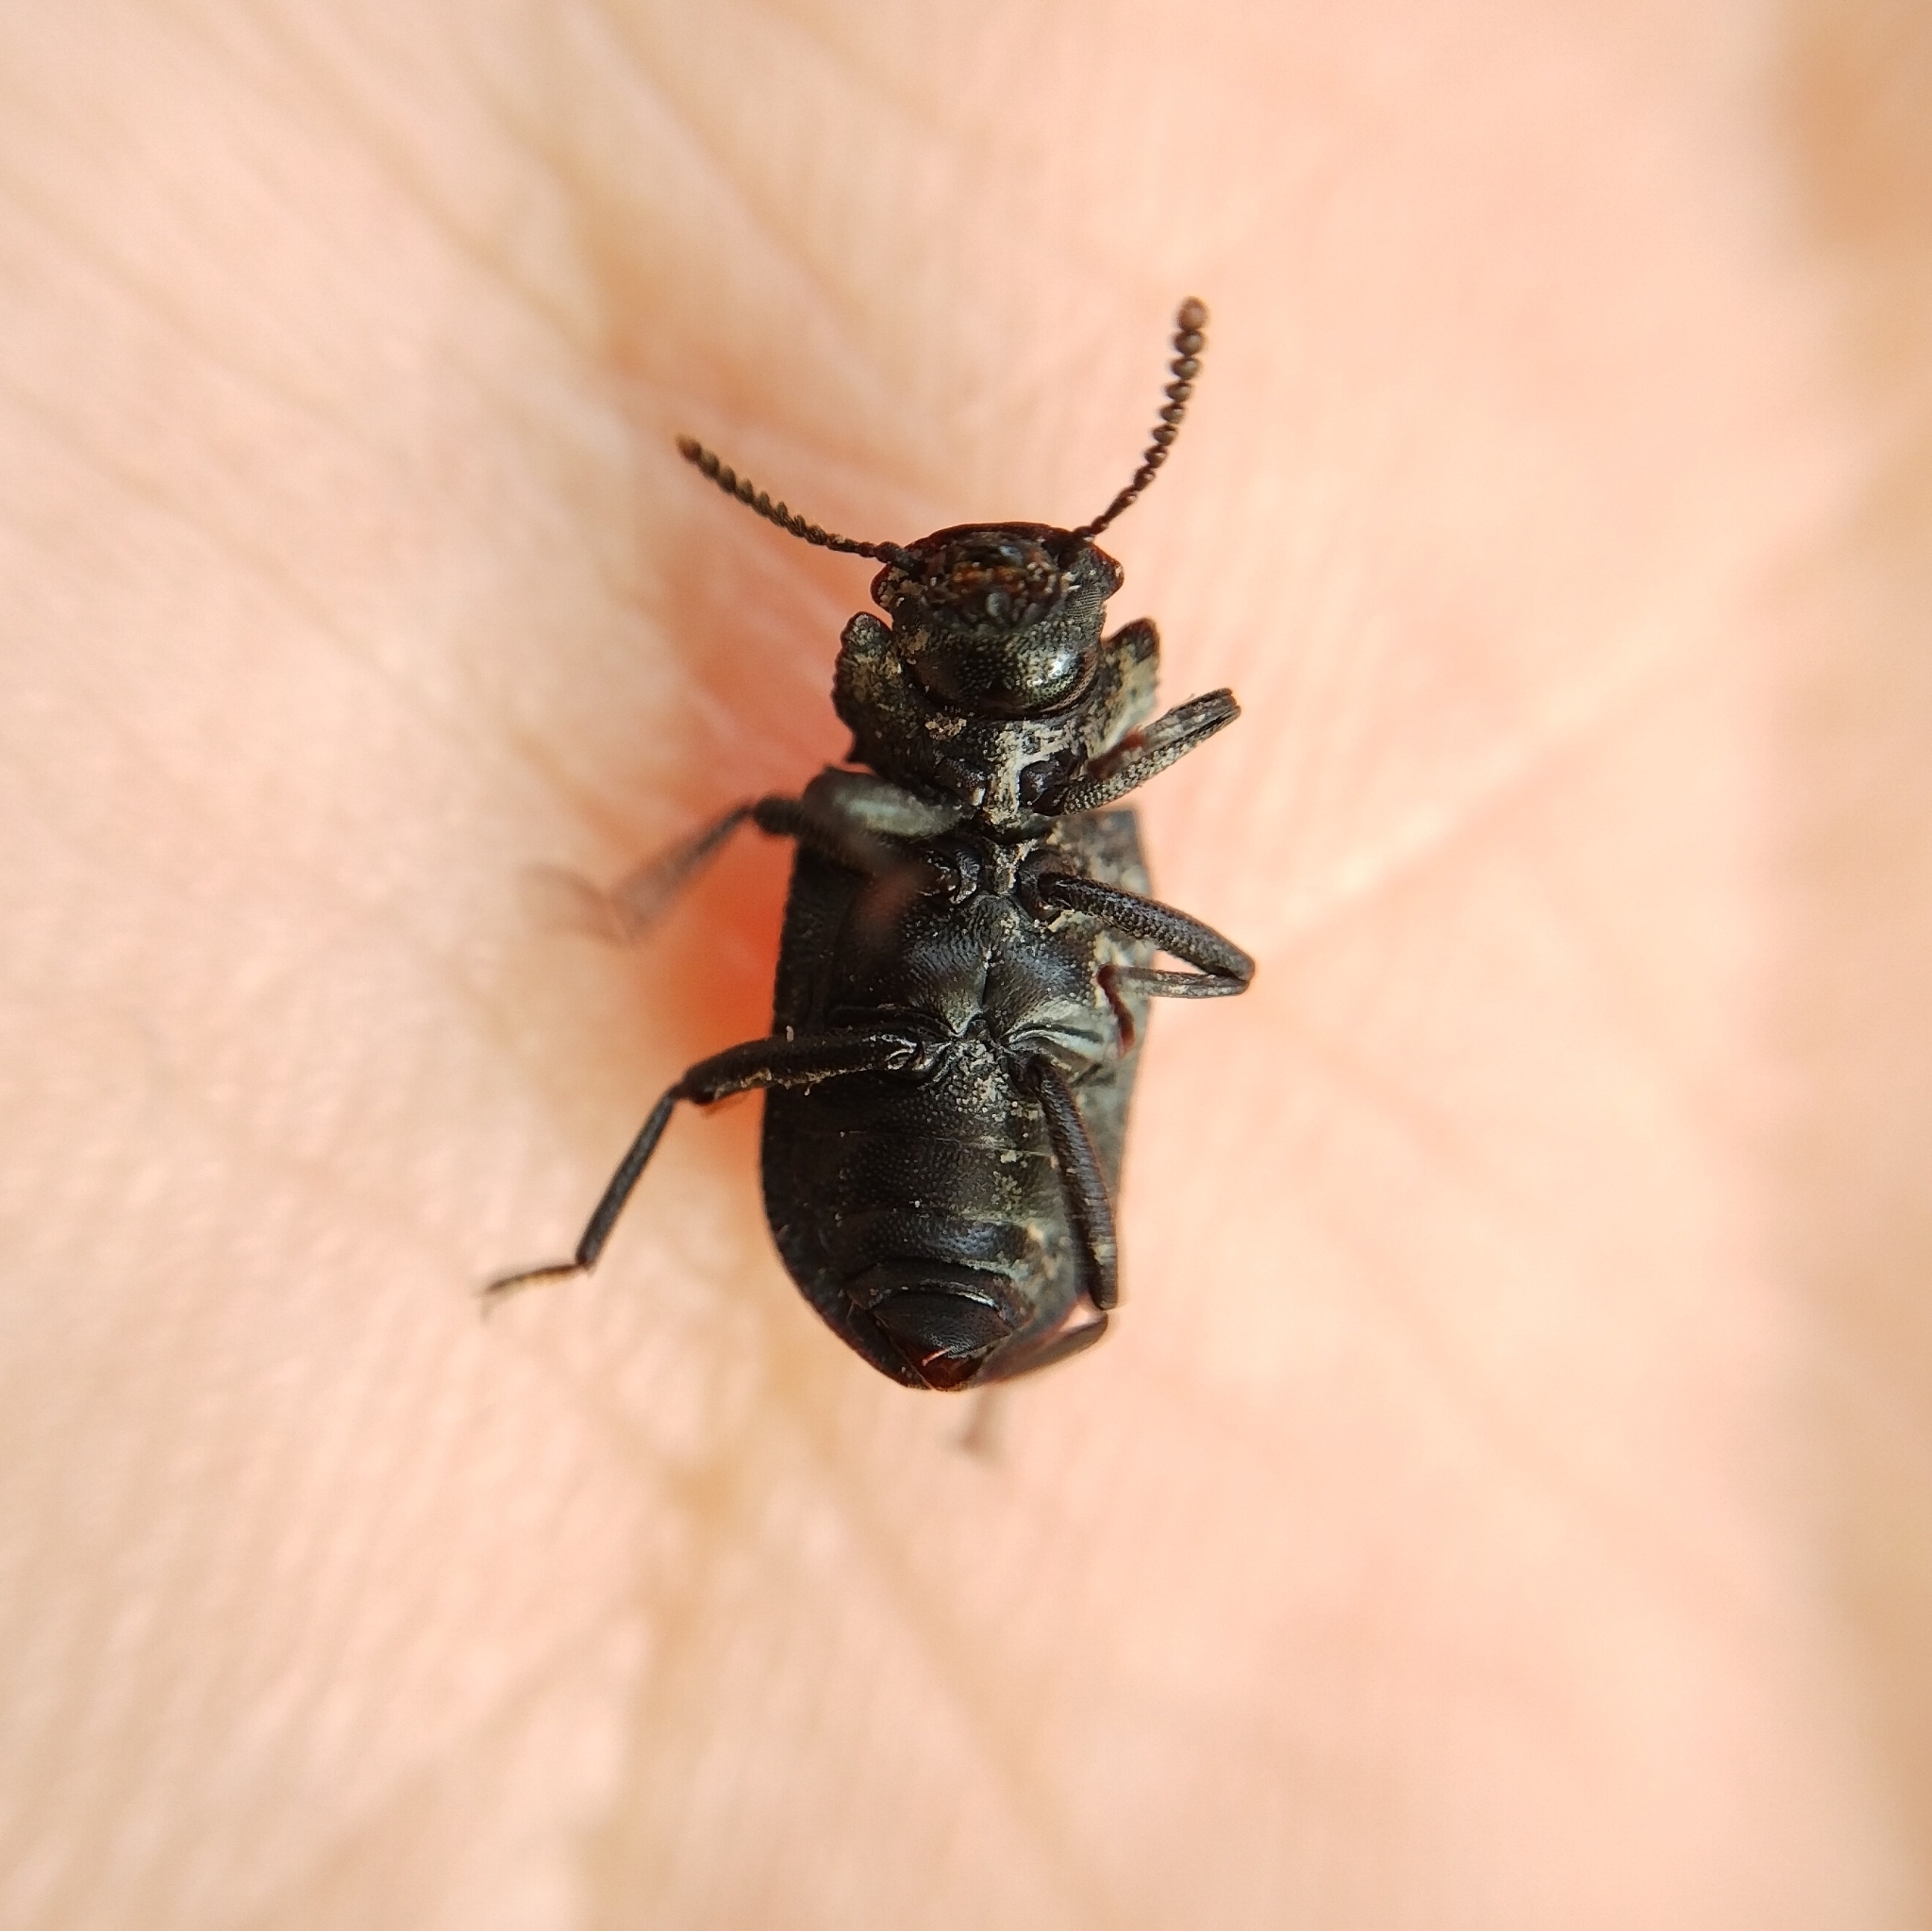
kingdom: Animalia
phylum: Arthropoda
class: Insecta
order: Coleoptera
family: Tenebrionidae
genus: Bolitophagus
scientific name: Bolitophagus reticulatus
